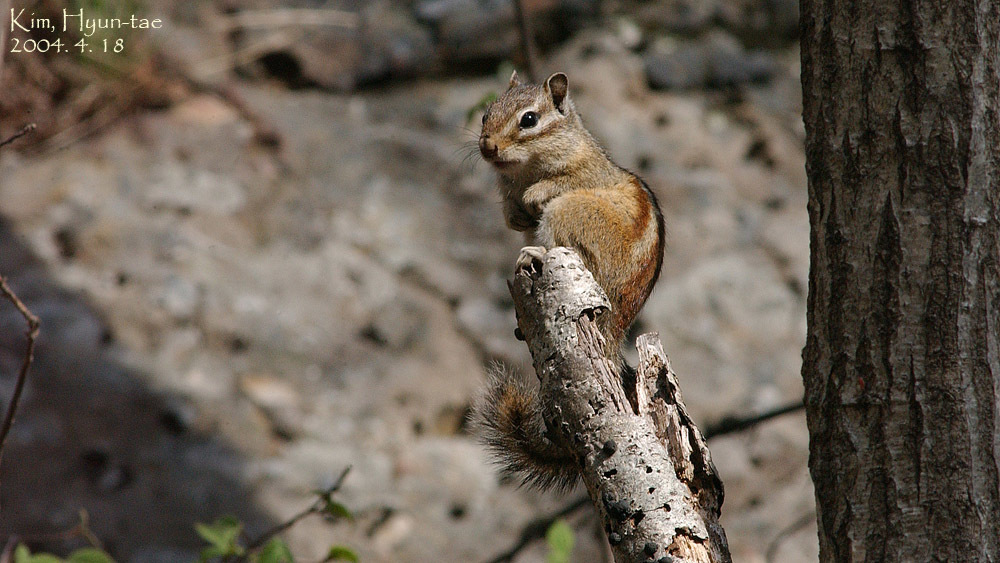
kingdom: Animalia
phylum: Chordata
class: Mammalia
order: Rodentia
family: Sciuridae
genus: Tamias
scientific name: Tamias sibiricus
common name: Siberian chipmunk
